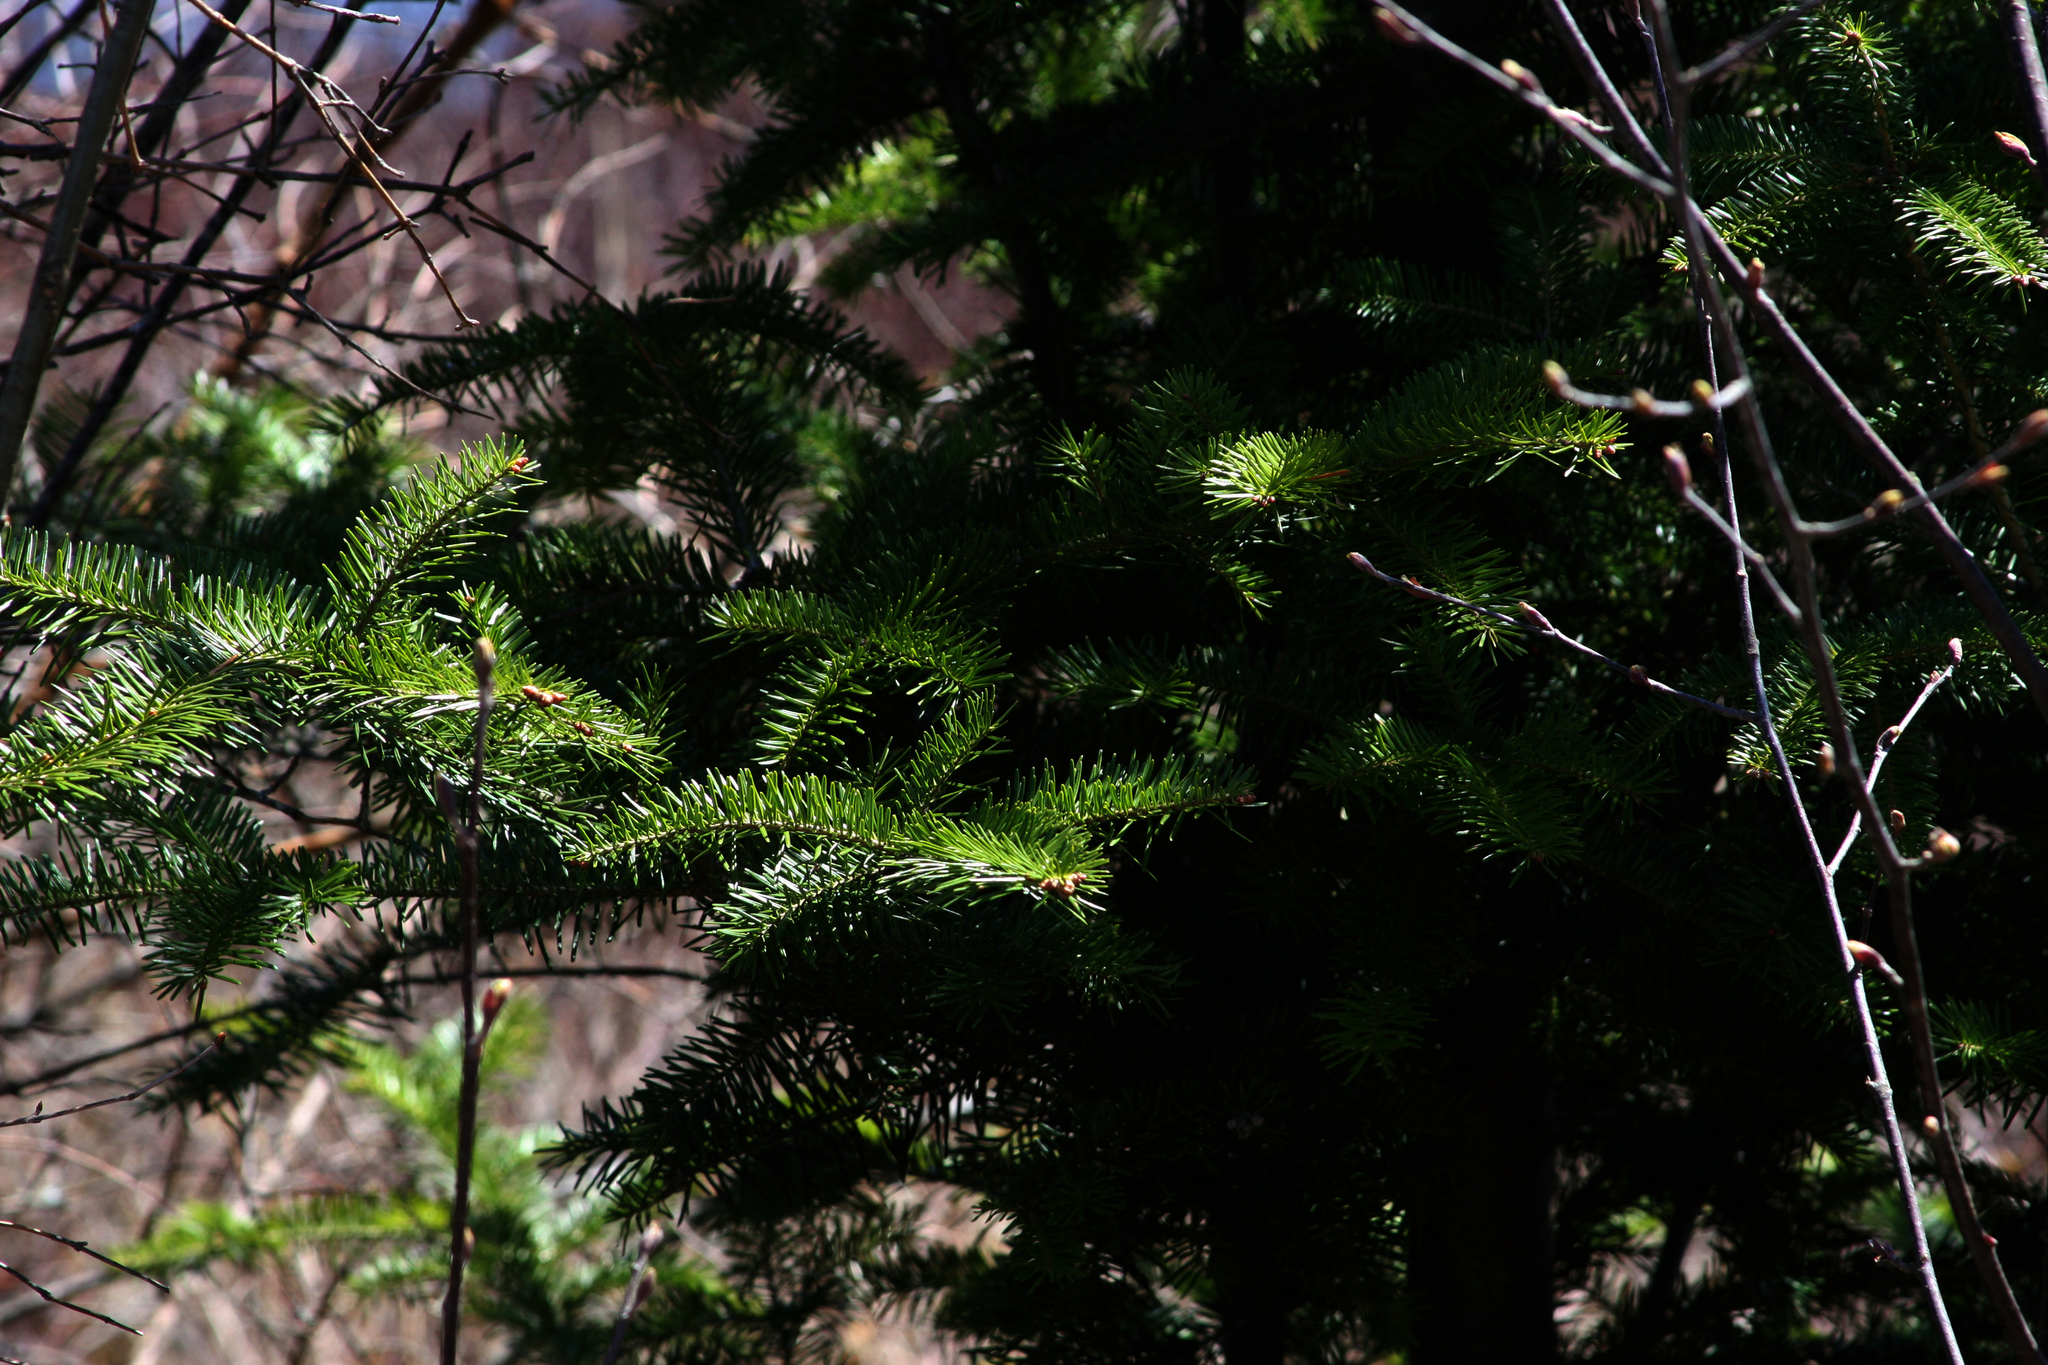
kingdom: Plantae
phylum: Tracheophyta
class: Pinopsida
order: Pinales
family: Pinaceae
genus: Abies
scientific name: Abies balsamea
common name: Balsam fir
